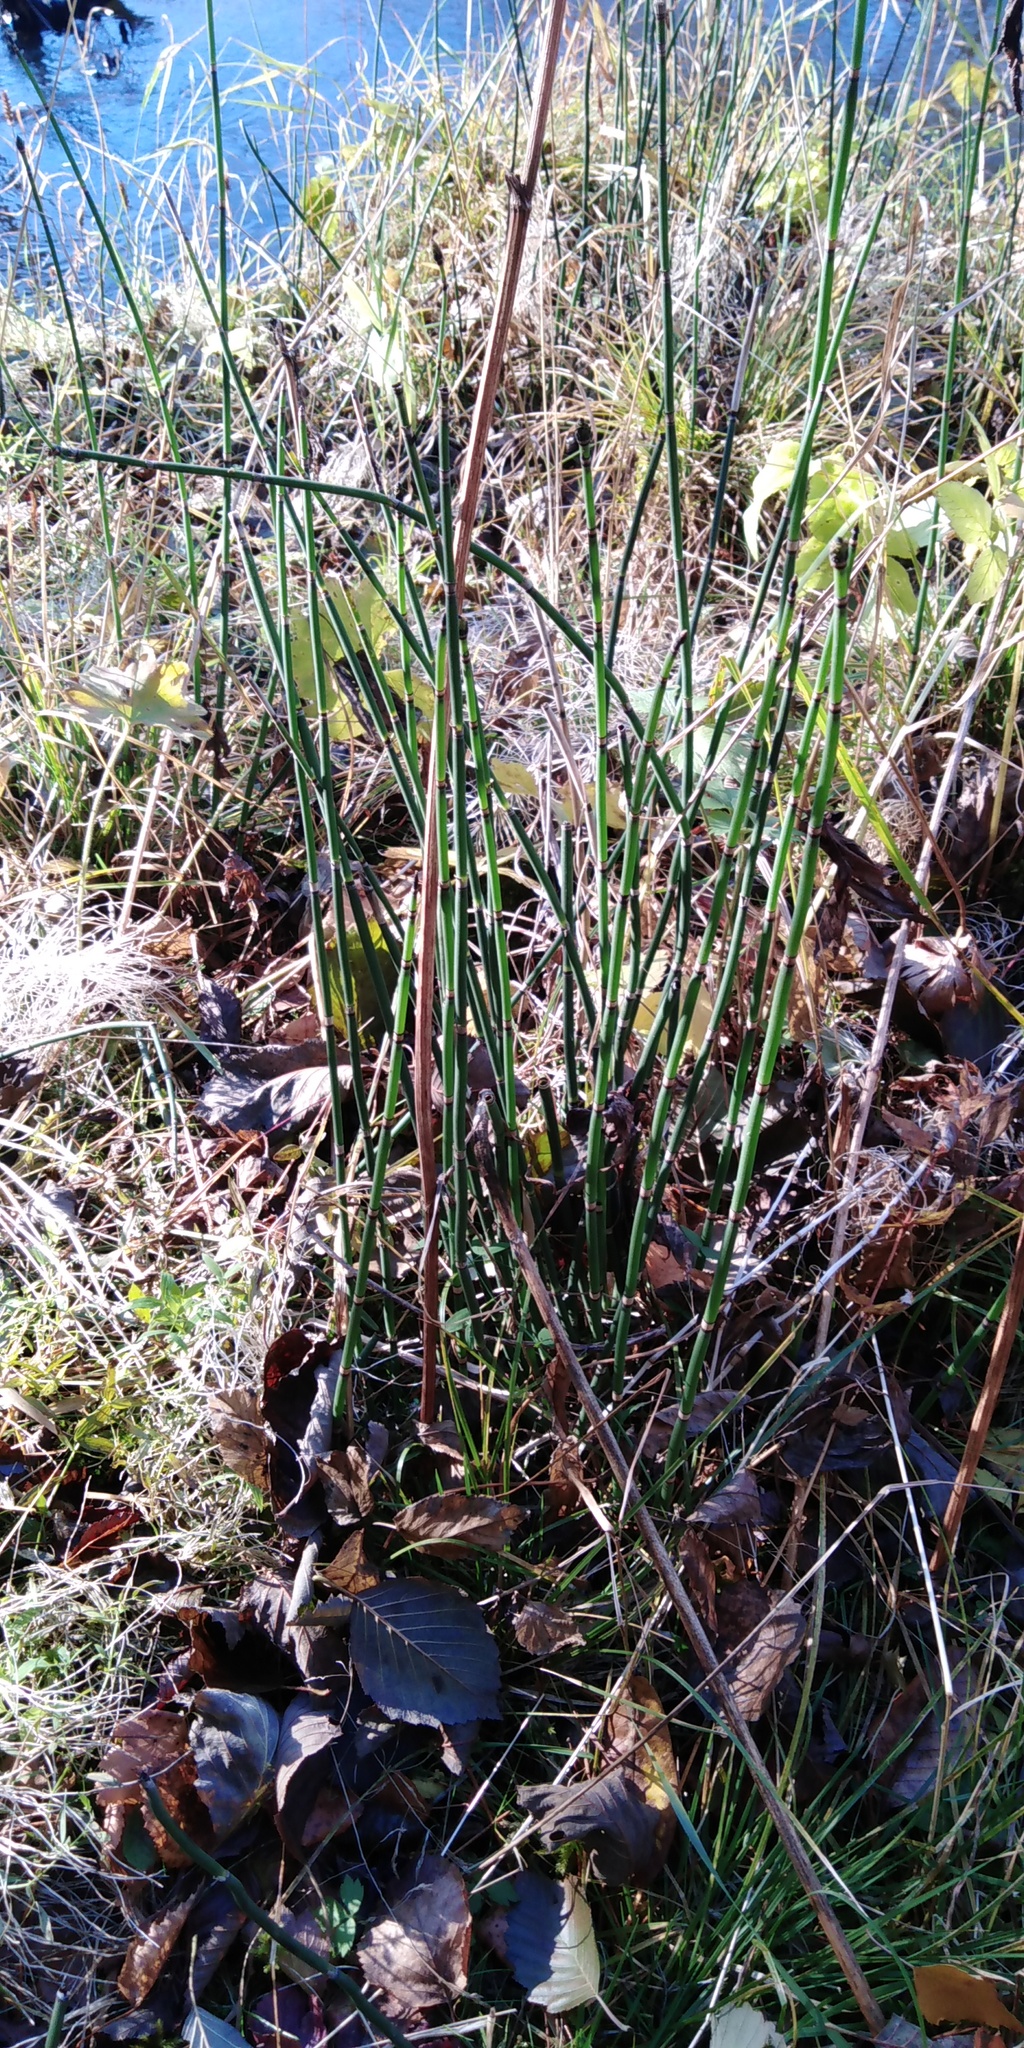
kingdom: Plantae
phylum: Tracheophyta
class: Polypodiopsida
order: Equisetales
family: Equisetaceae
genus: Equisetum
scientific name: Equisetum hyemale
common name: Rough horsetail
